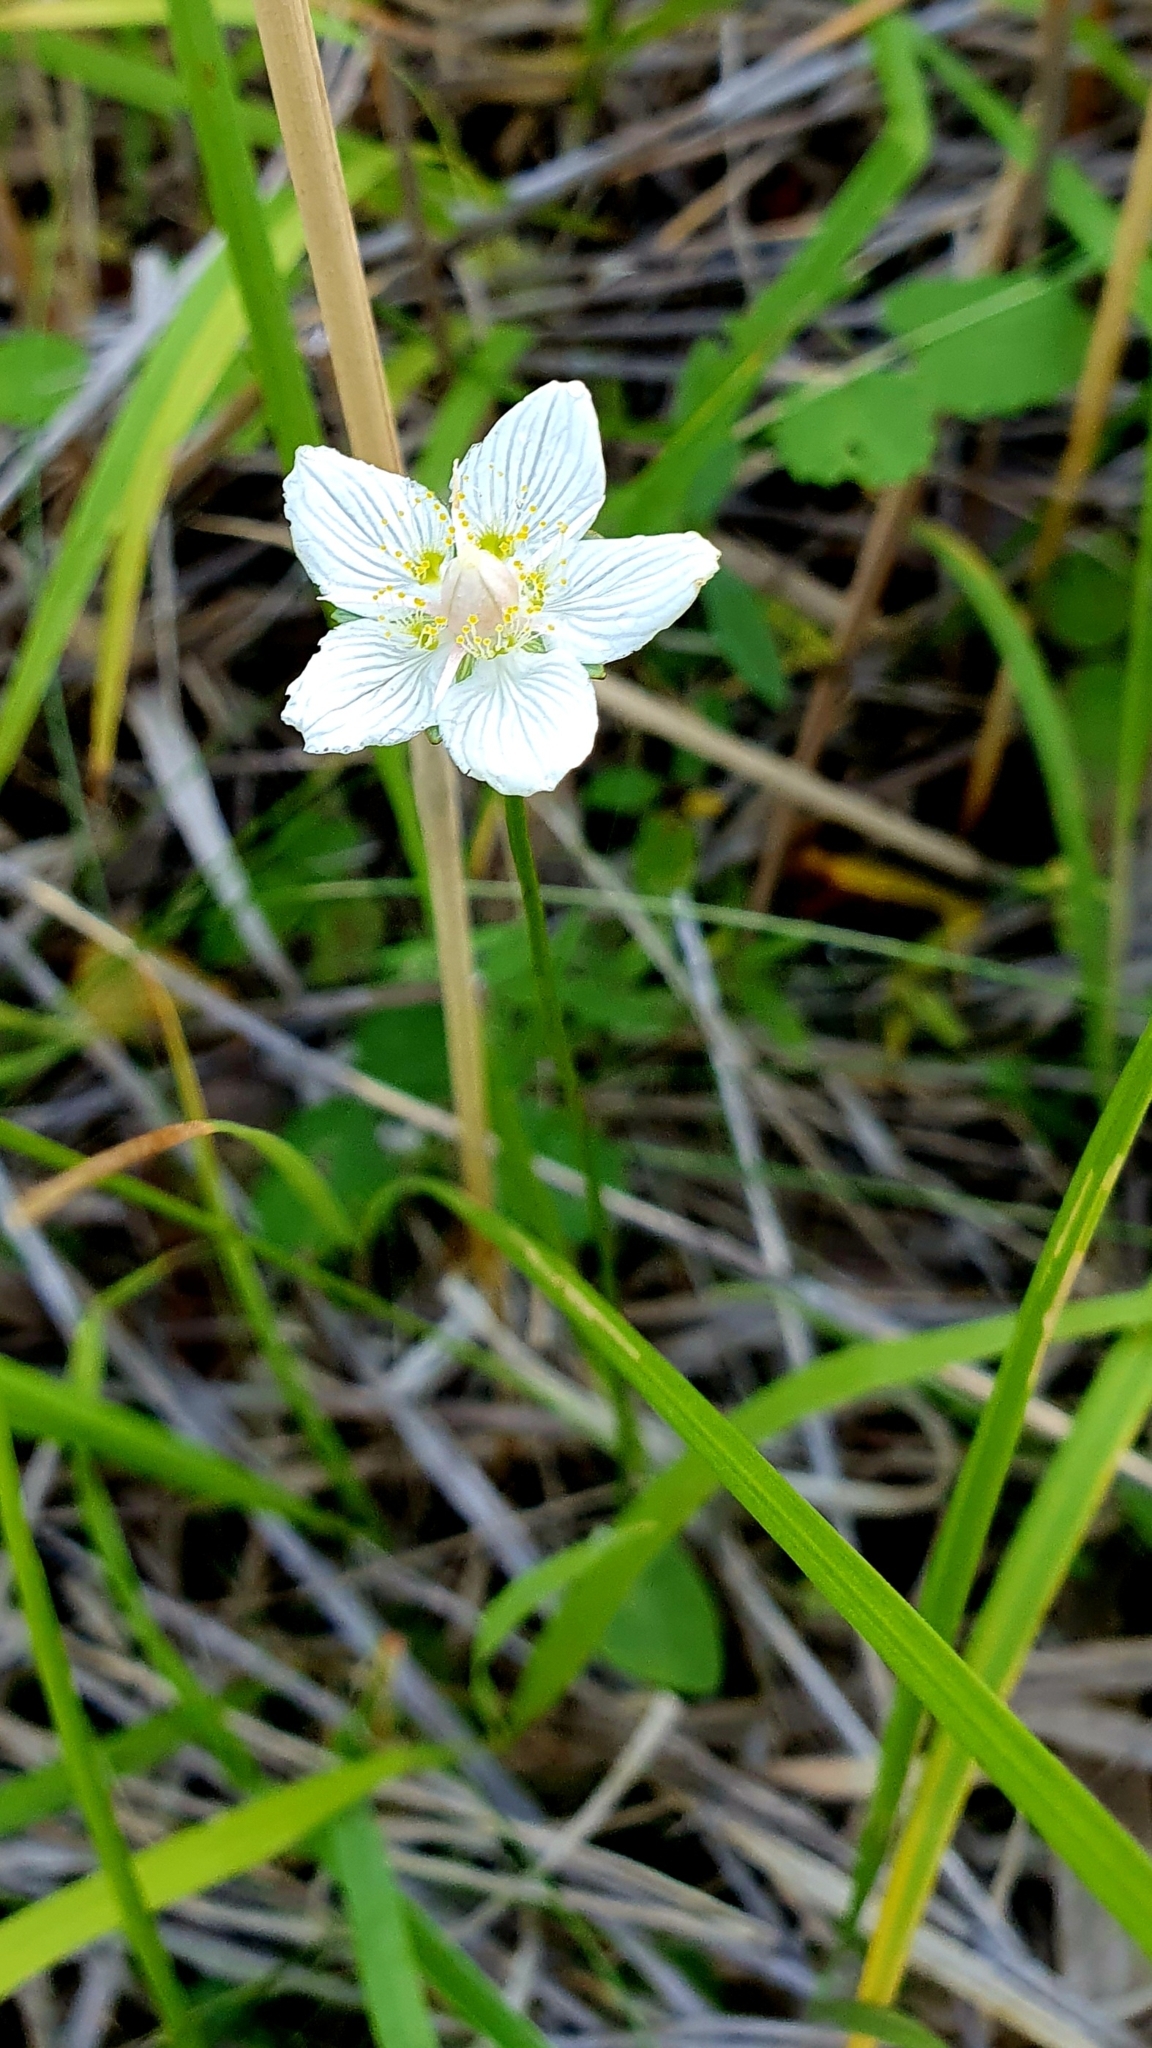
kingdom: Plantae
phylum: Tracheophyta
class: Magnoliopsida
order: Celastrales
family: Parnassiaceae
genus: Parnassia
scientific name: Parnassia palustris
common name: Grass-of-parnassus
